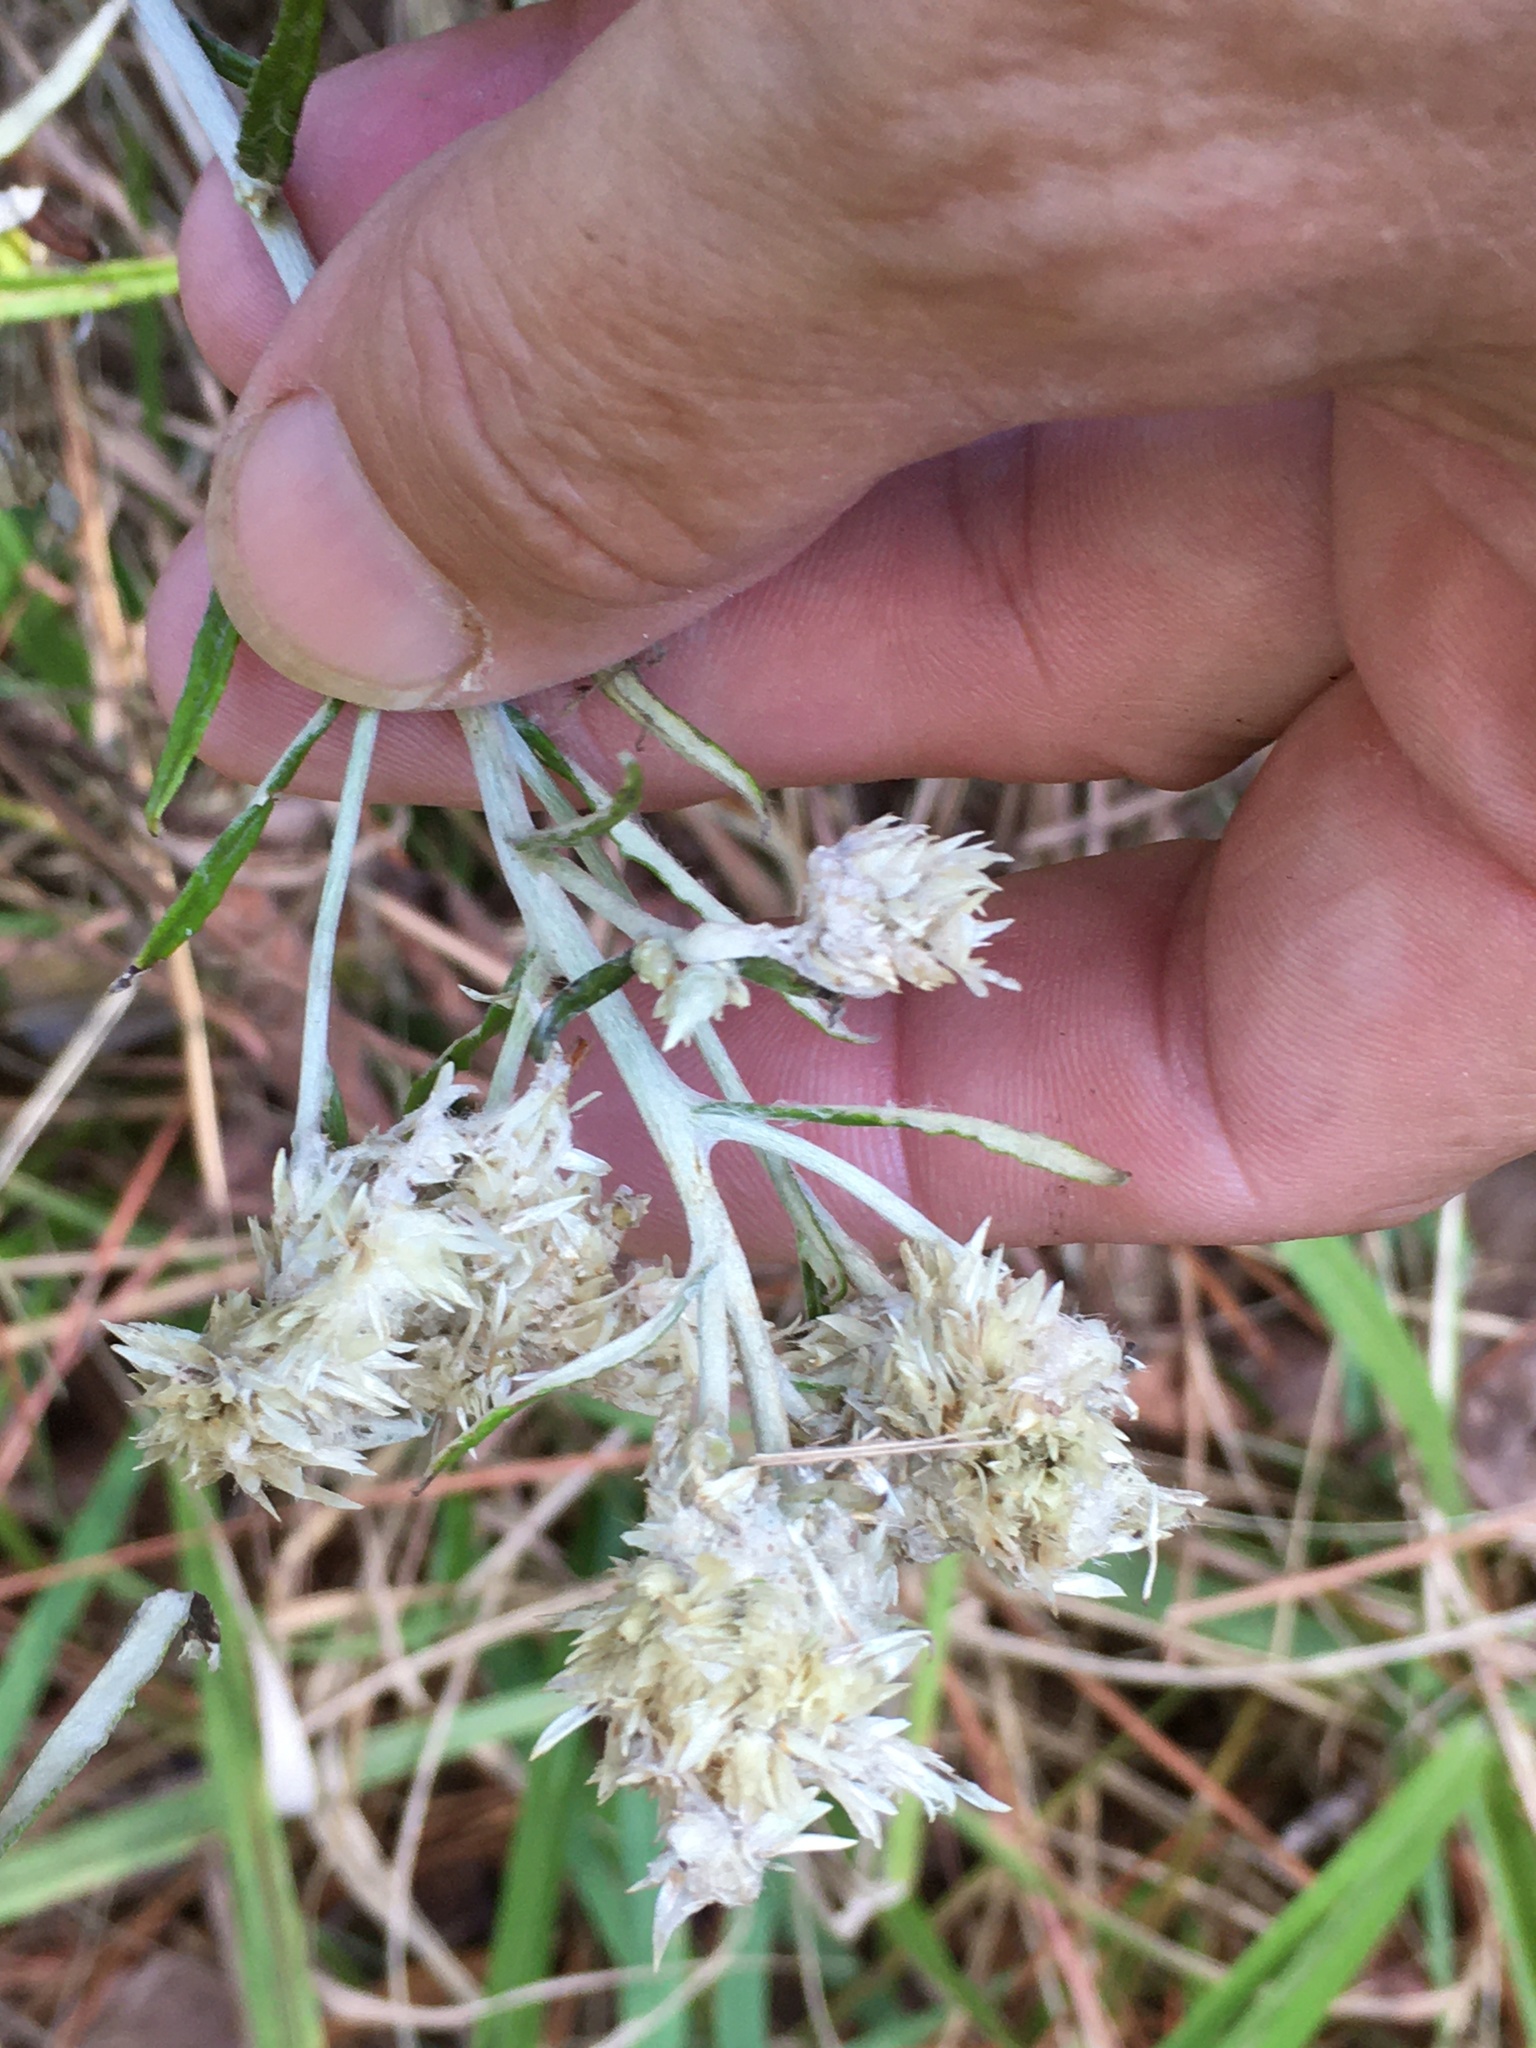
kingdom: Plantae
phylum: Tracheophyta
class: Magnoliopsida
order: Asterales
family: Asteraceae
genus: Pseudognaphalium
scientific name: Pseudognaphalium obtusifolium
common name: Eastern rabbit-tobacco
